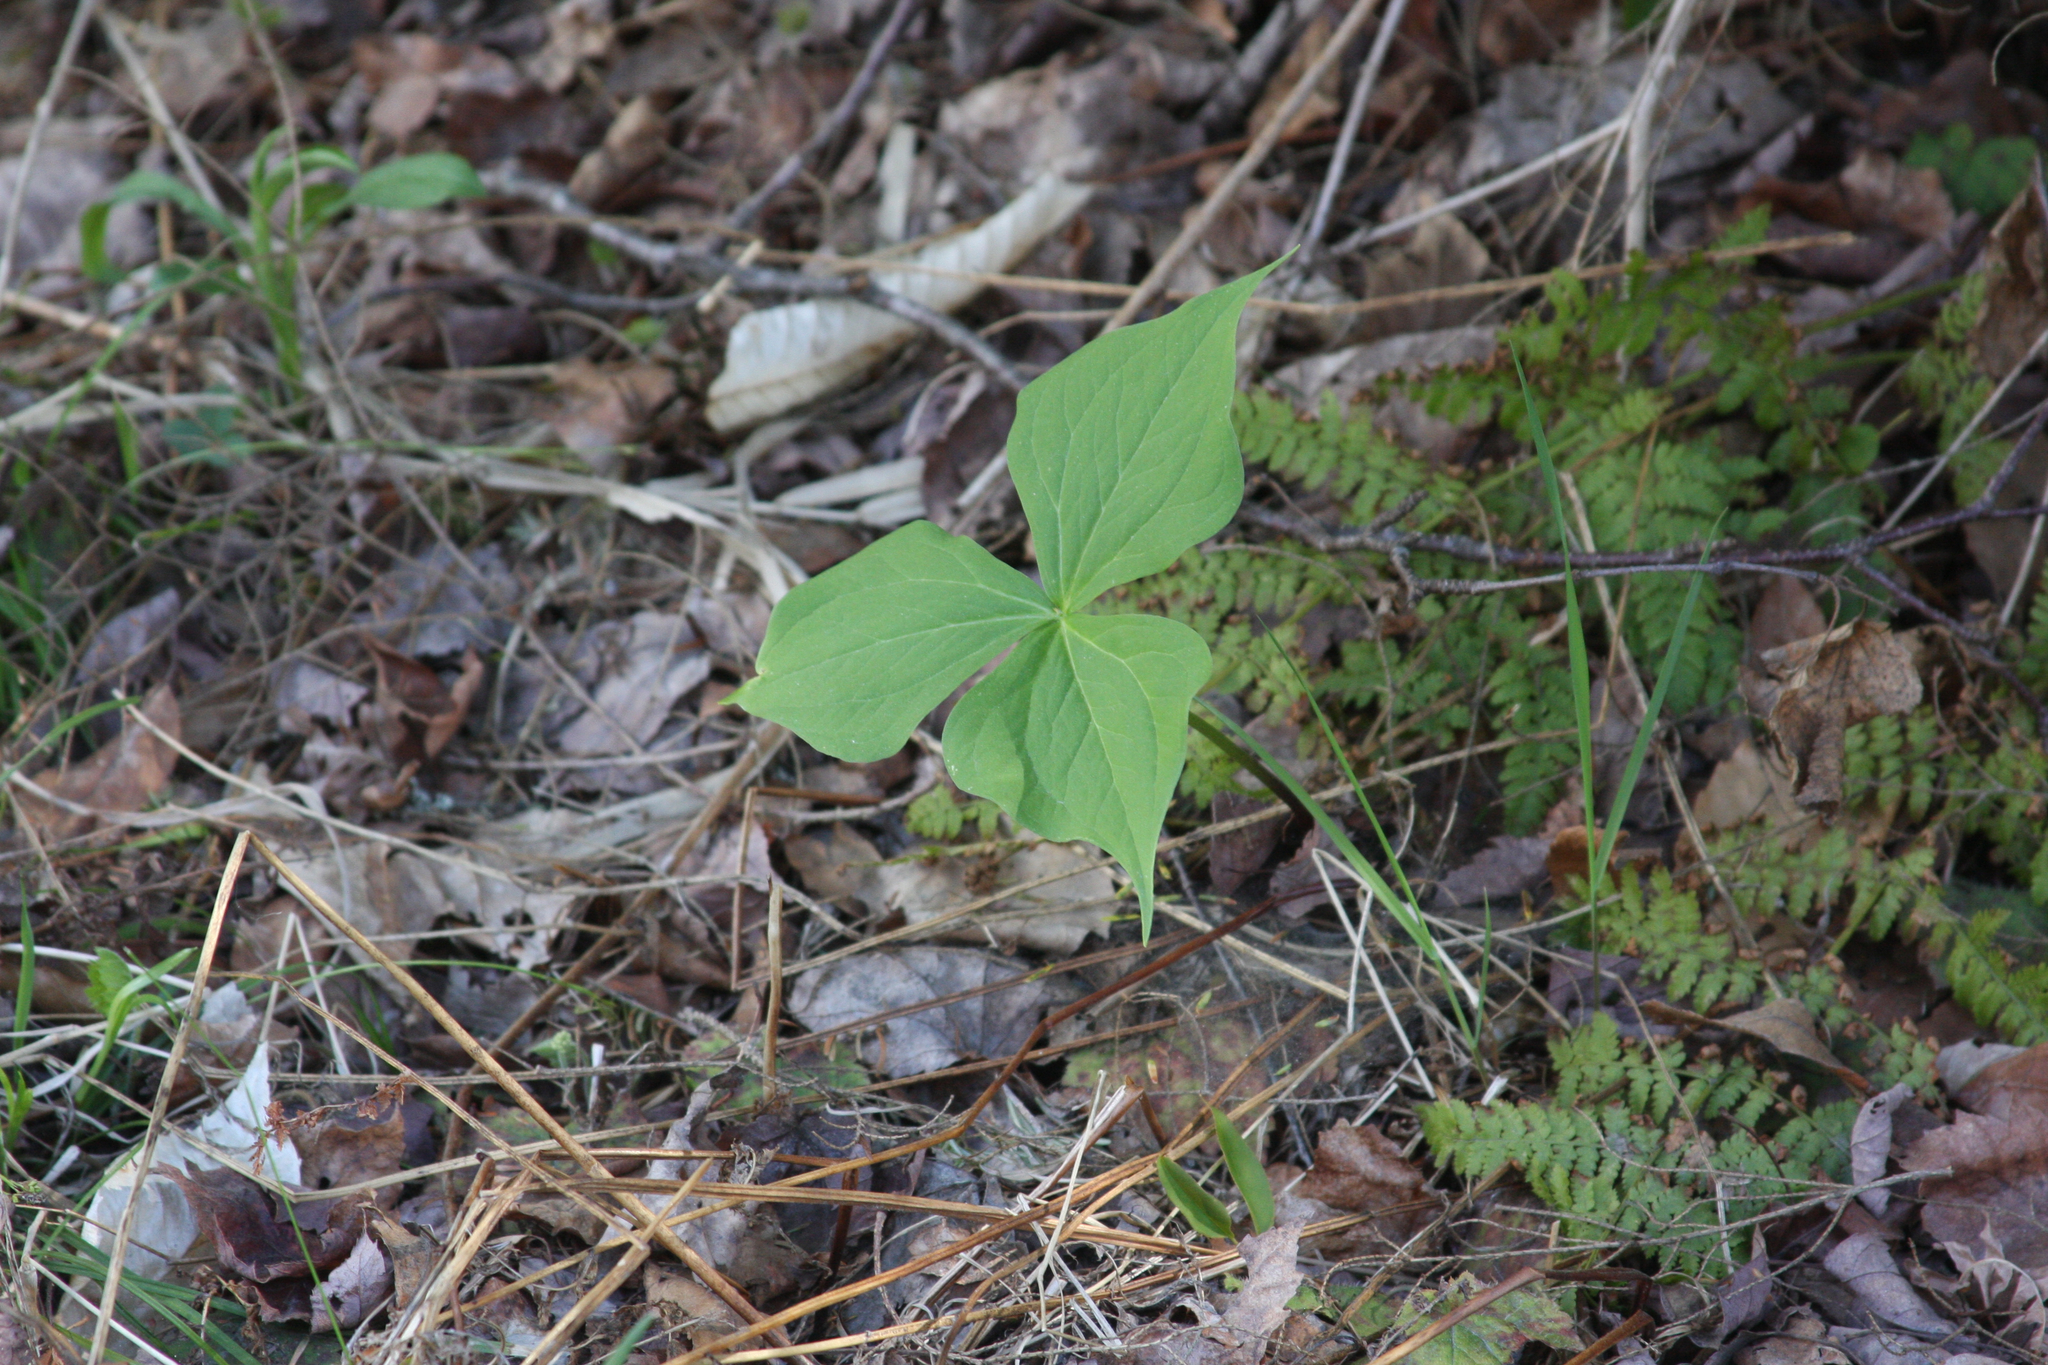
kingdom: Plantae
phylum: Tracheophyta
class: Liliopsida
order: Liliales
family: Melanthiaceae
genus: Trillium
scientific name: Trillium erectum
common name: Purple trillium
